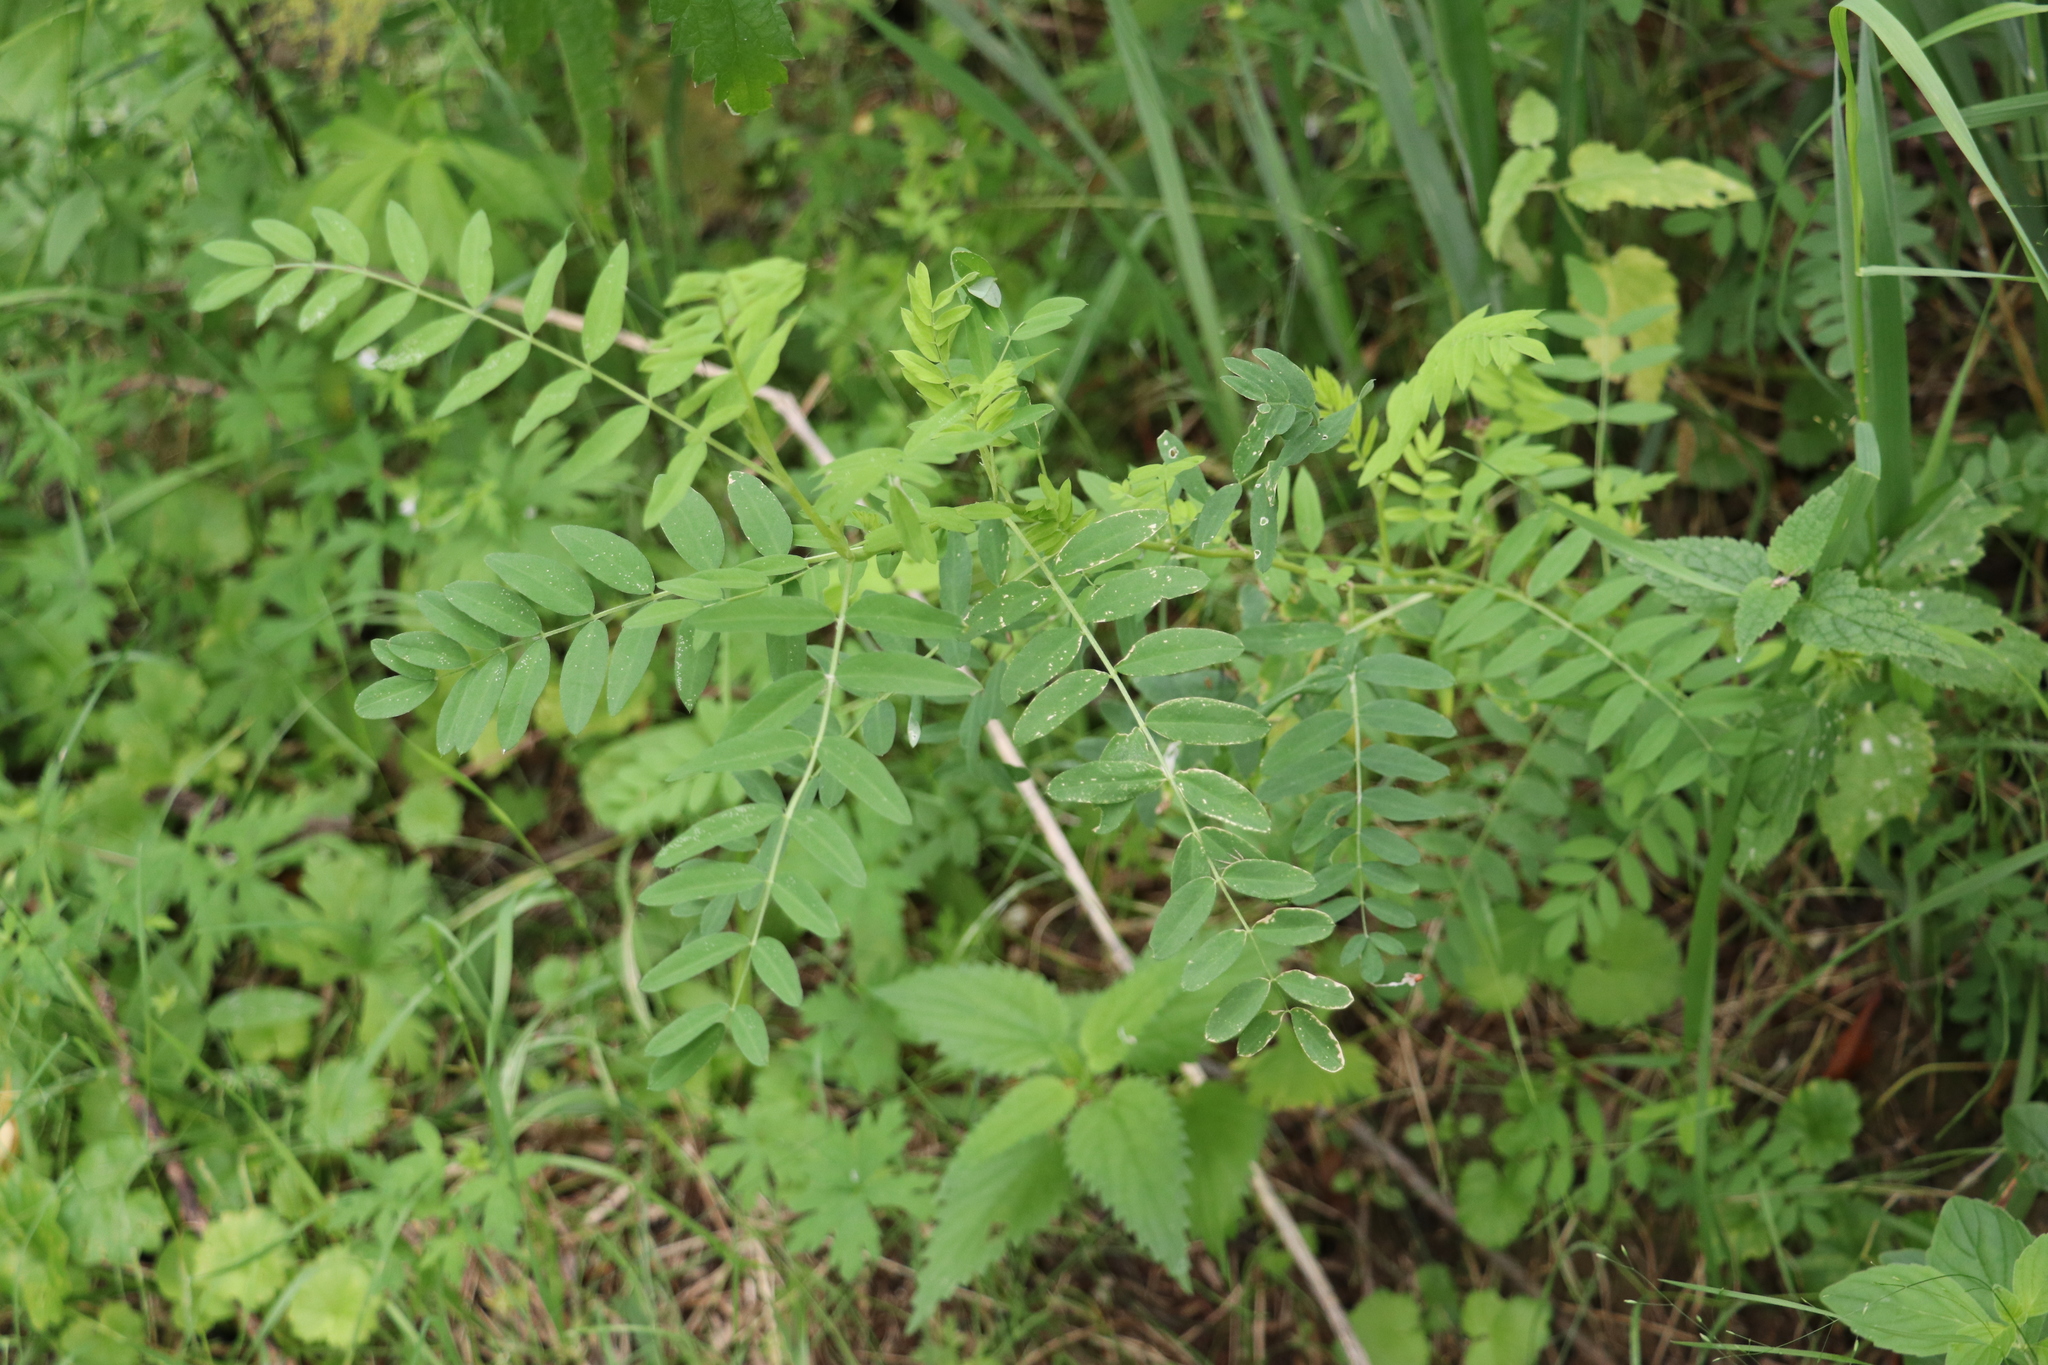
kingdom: Plantae
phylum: Tracheophyta
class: Magnoliopsida
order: Fabales
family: Fabaceae
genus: Astragalus
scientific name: Astragalus uliginosus
